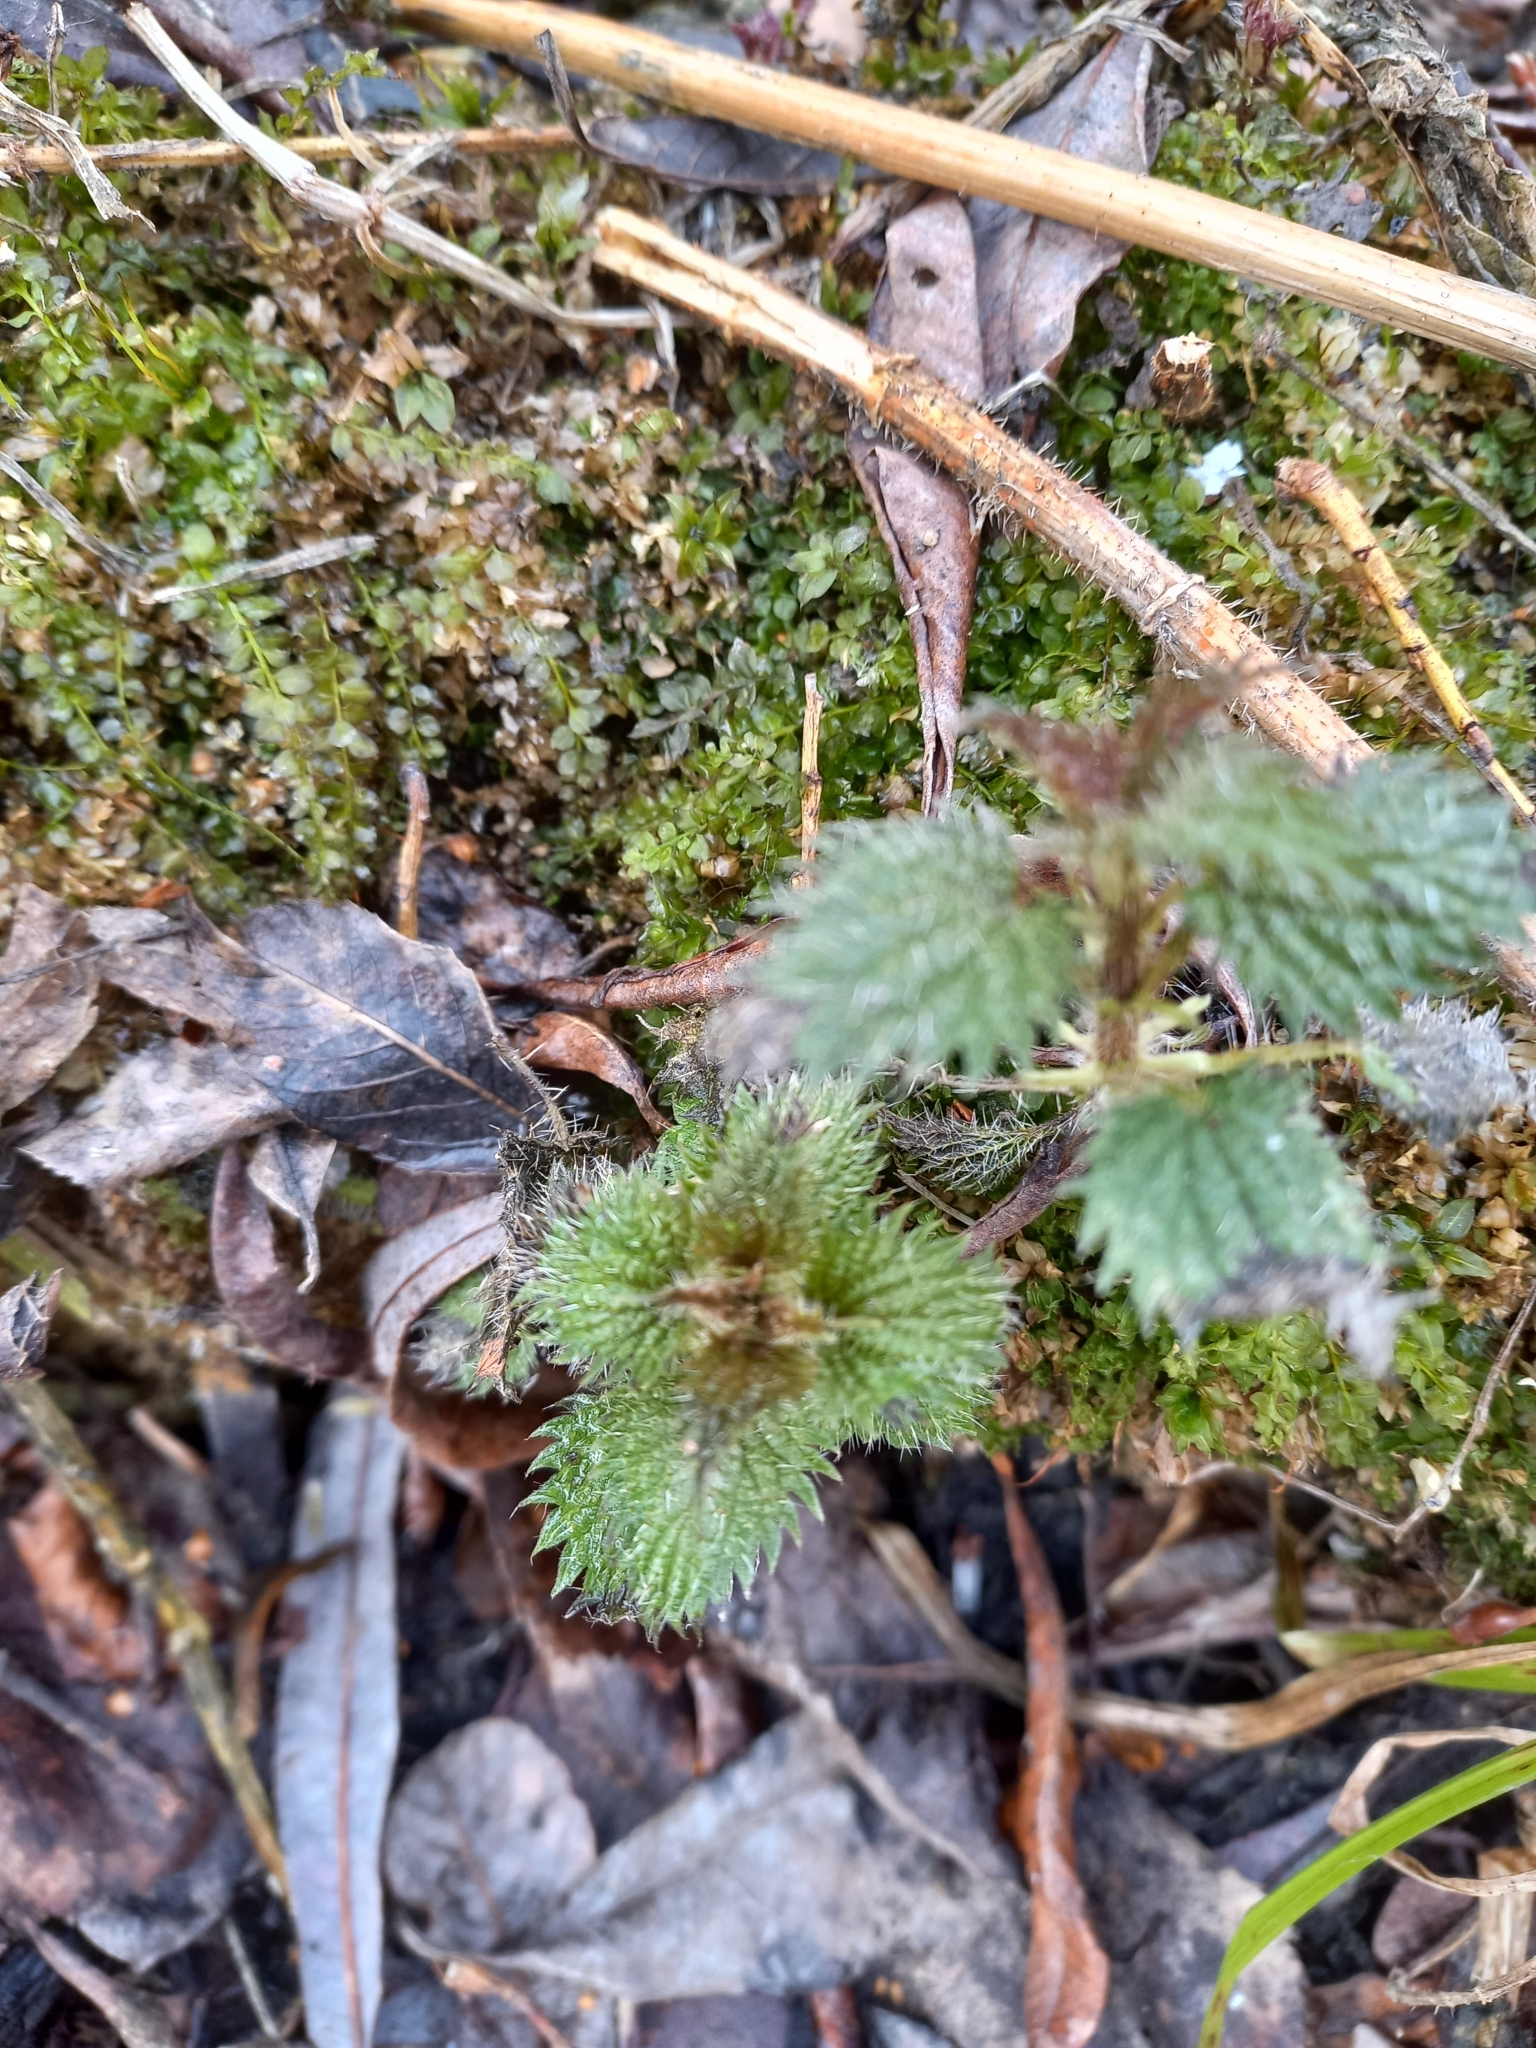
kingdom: Plantae
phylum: Tracheophyta
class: Magnoliopsida
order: Rosales
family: Urticaceae
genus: Urtica
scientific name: Urtica dioica
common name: Common nettle
